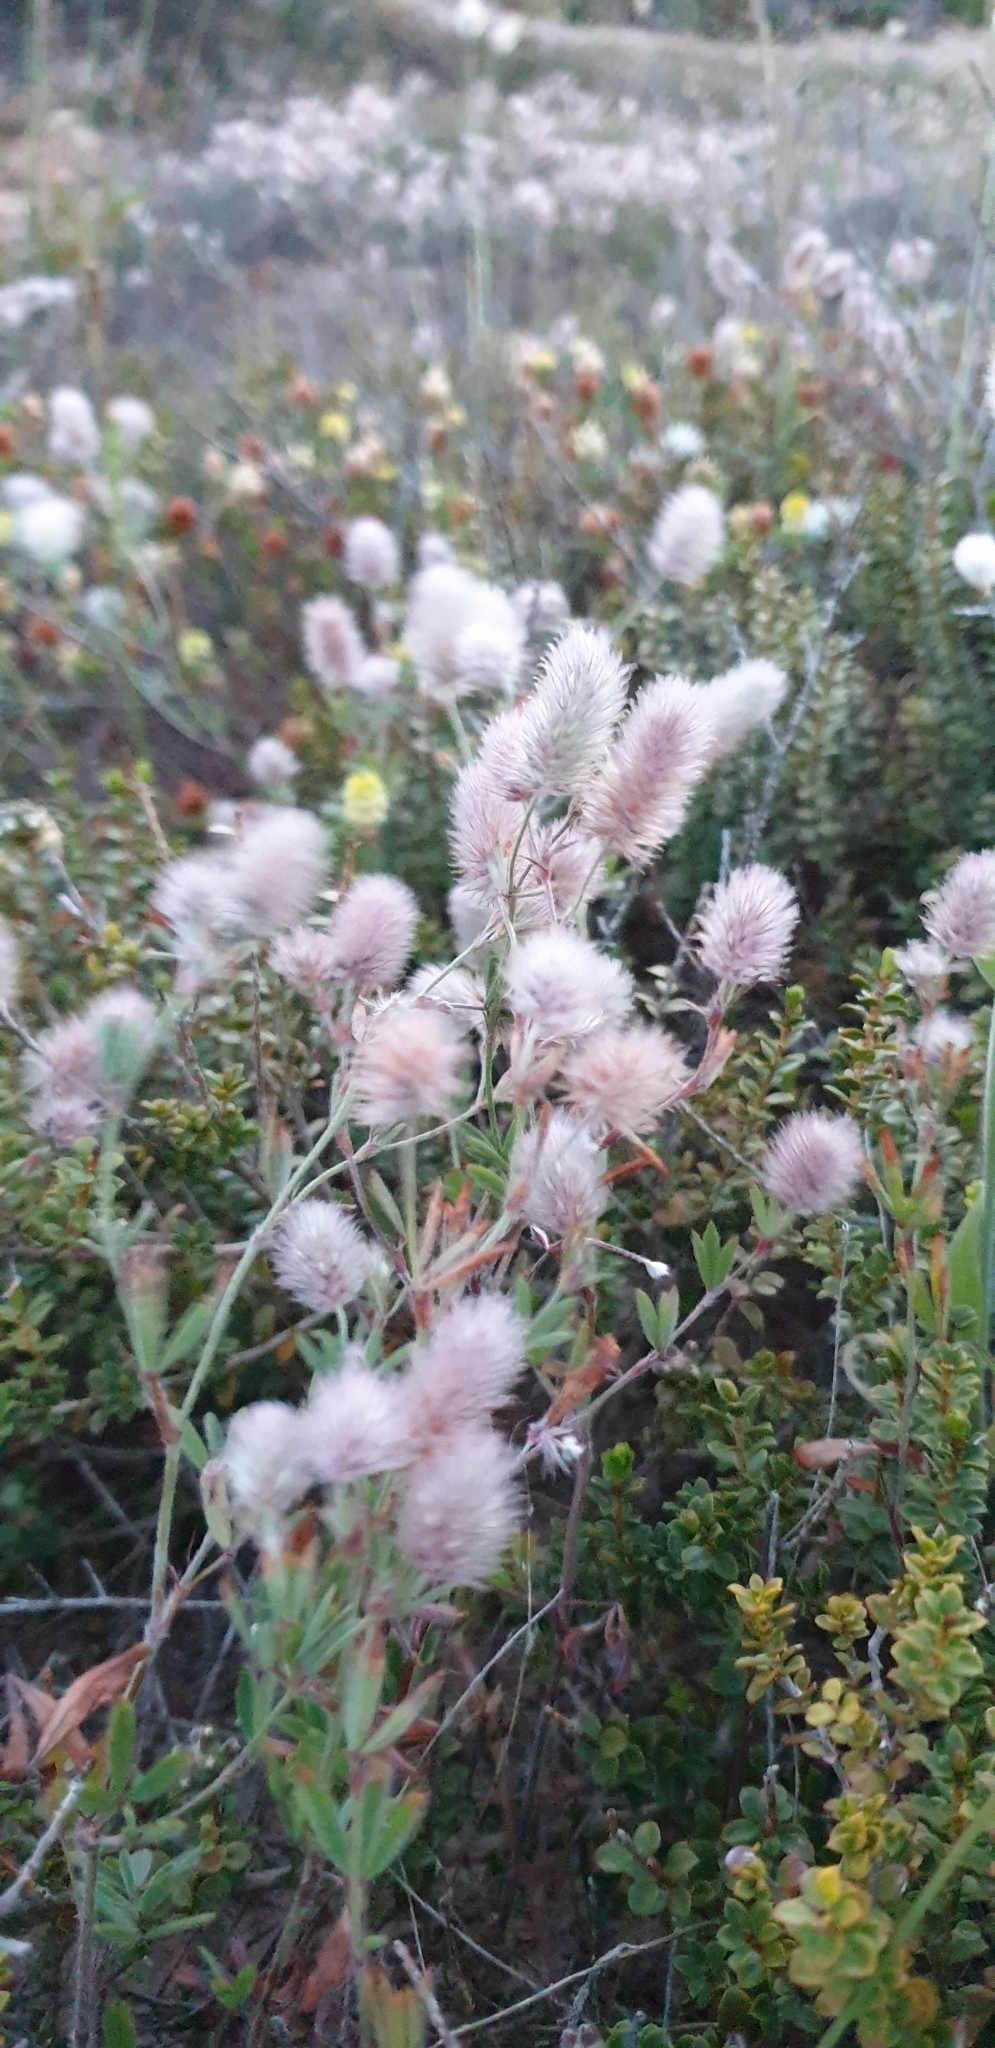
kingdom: Plantae
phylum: Tracheophyta
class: Magnoliopsida
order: Fabales
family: Fabaceae
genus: Trifolium
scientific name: Trifolium arvense
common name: Hare's-foot clover
